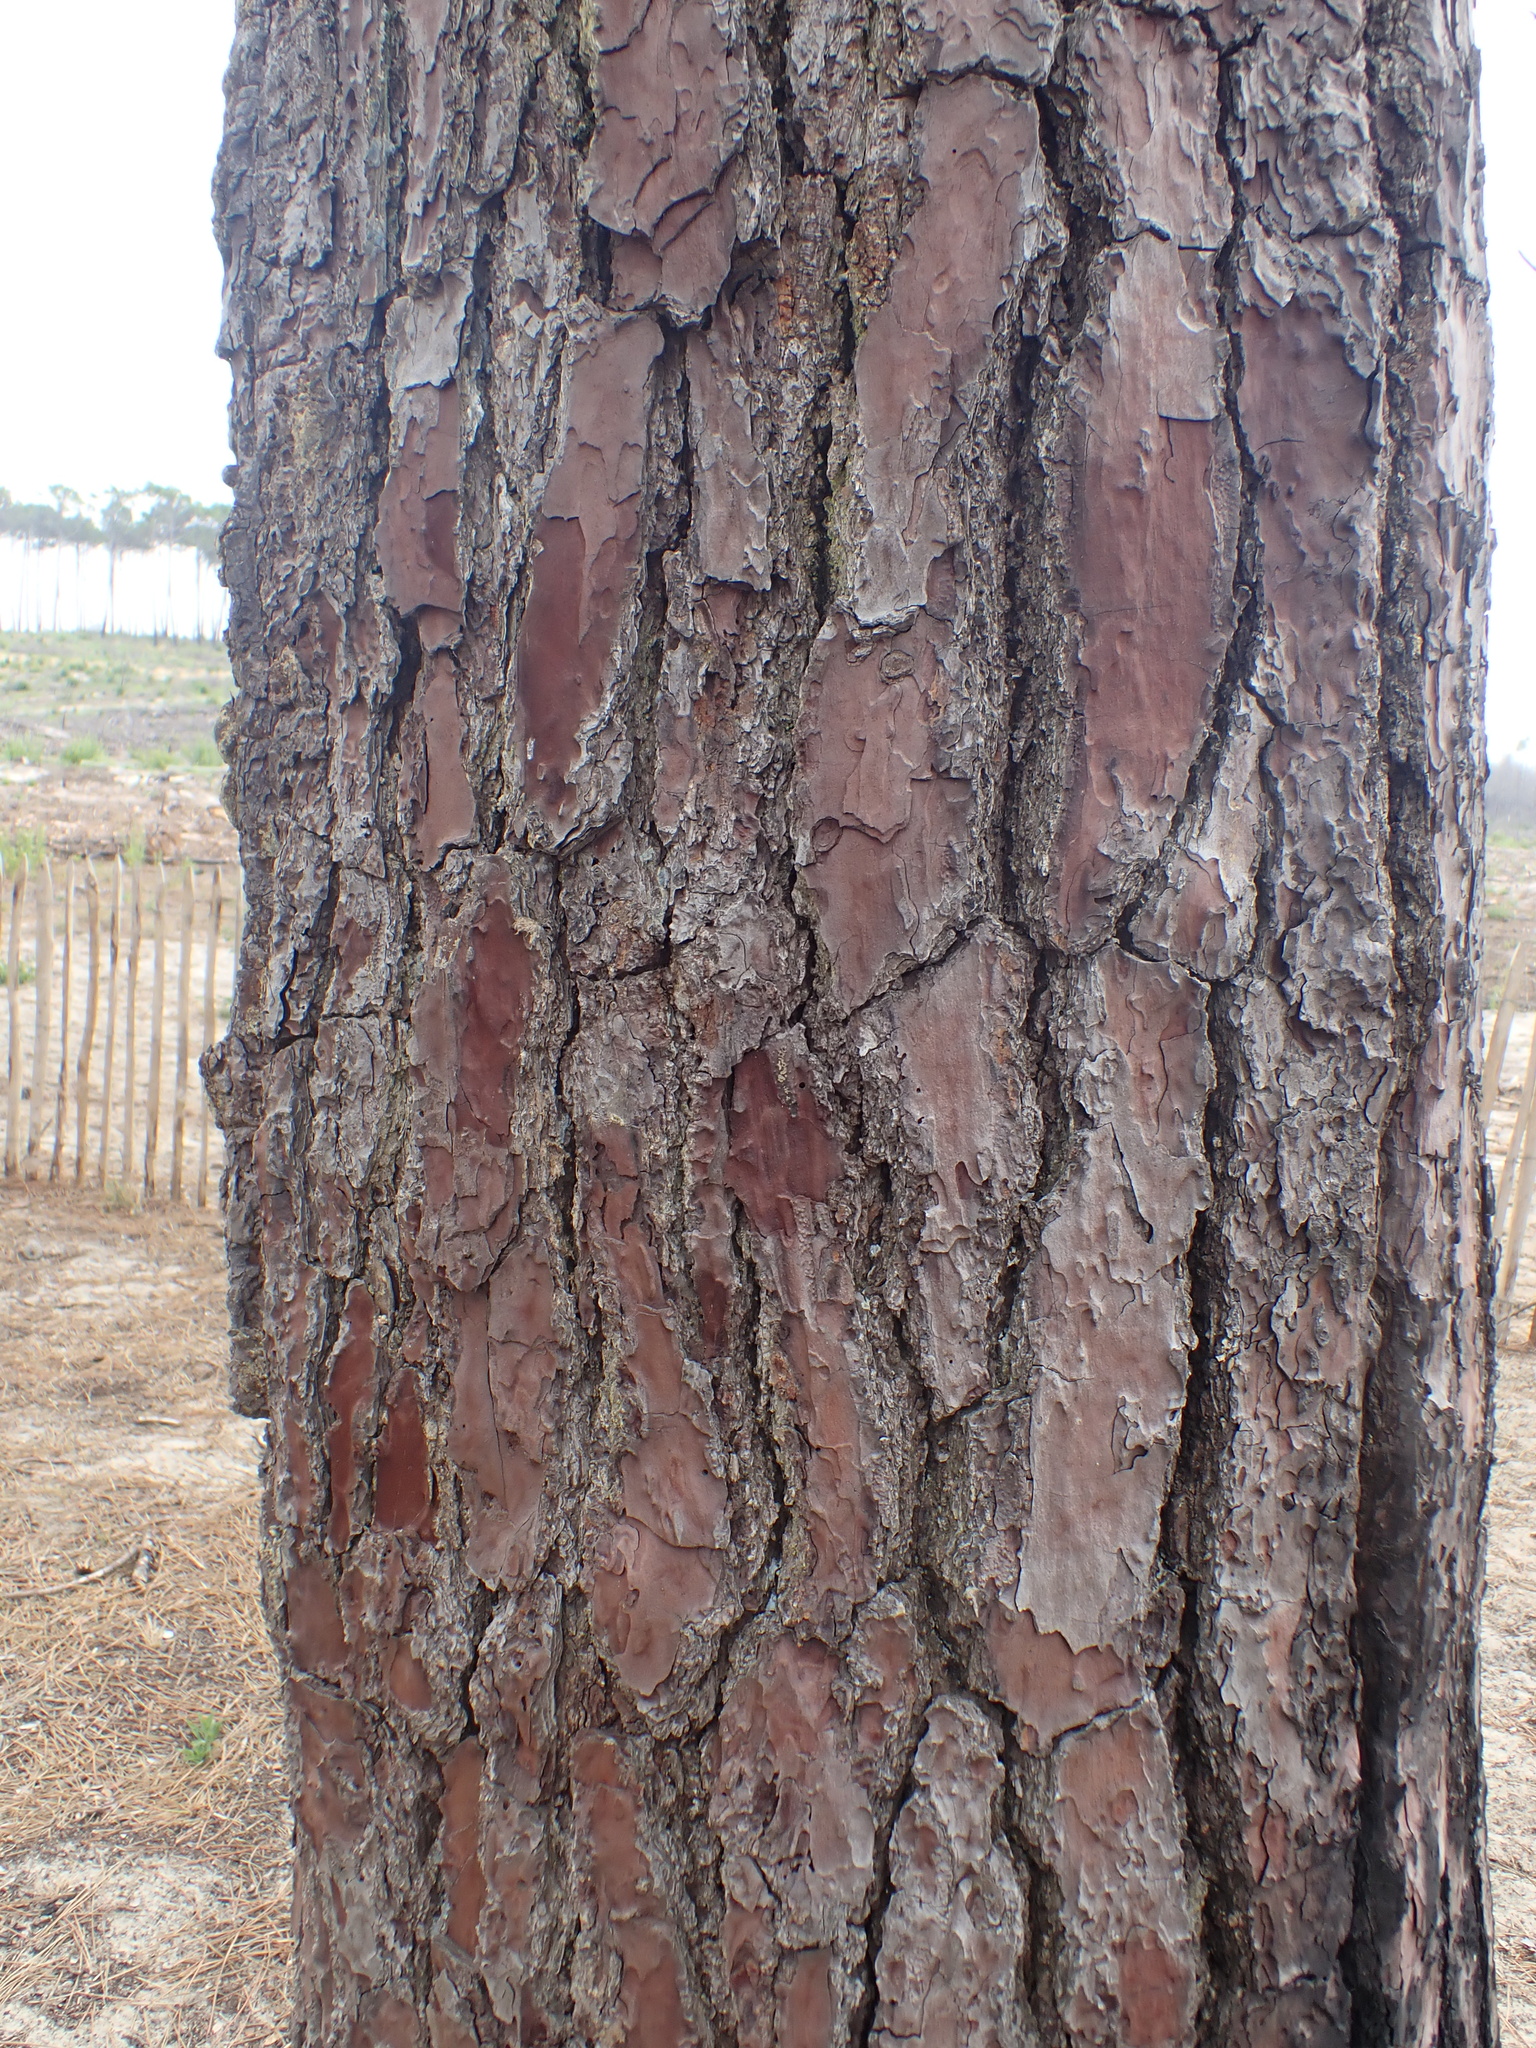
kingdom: Plantae
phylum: Tracheophyta
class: Pinopsida
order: Pinales
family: Pinaceae
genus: Pinus
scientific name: Pinus pinaster
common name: Maritime pine
